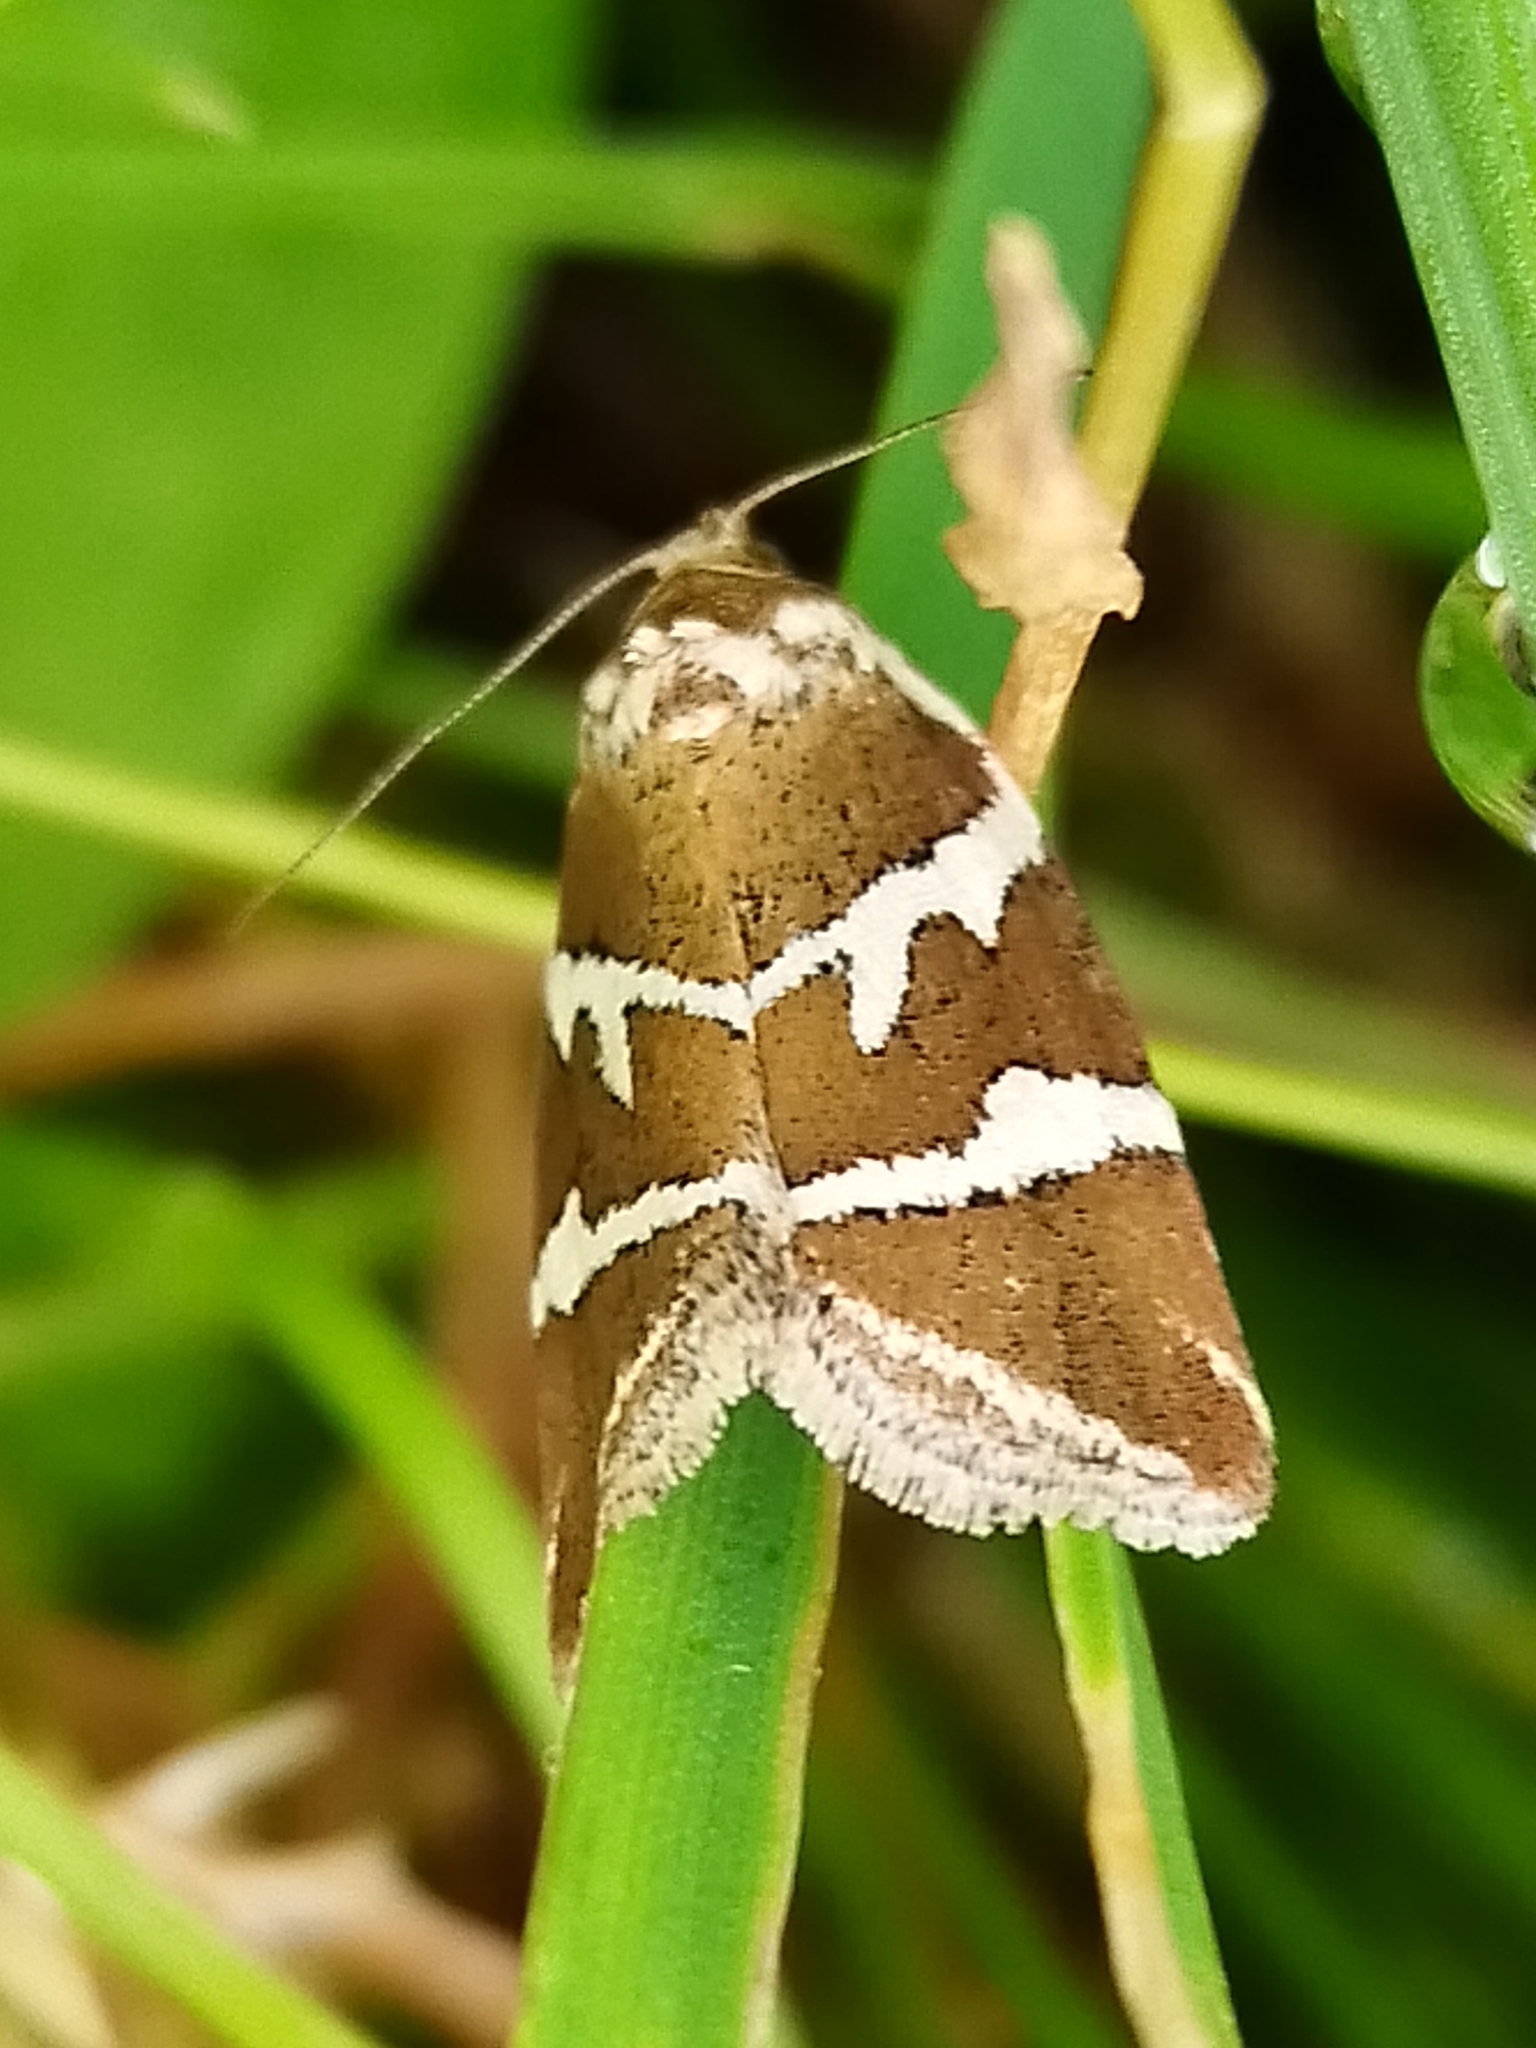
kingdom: Animalia
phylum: Arthropoda
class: Insecta
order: Lepidoptera
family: Noctuidae
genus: Deltote
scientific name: Deltote bankiana
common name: Silver barred
